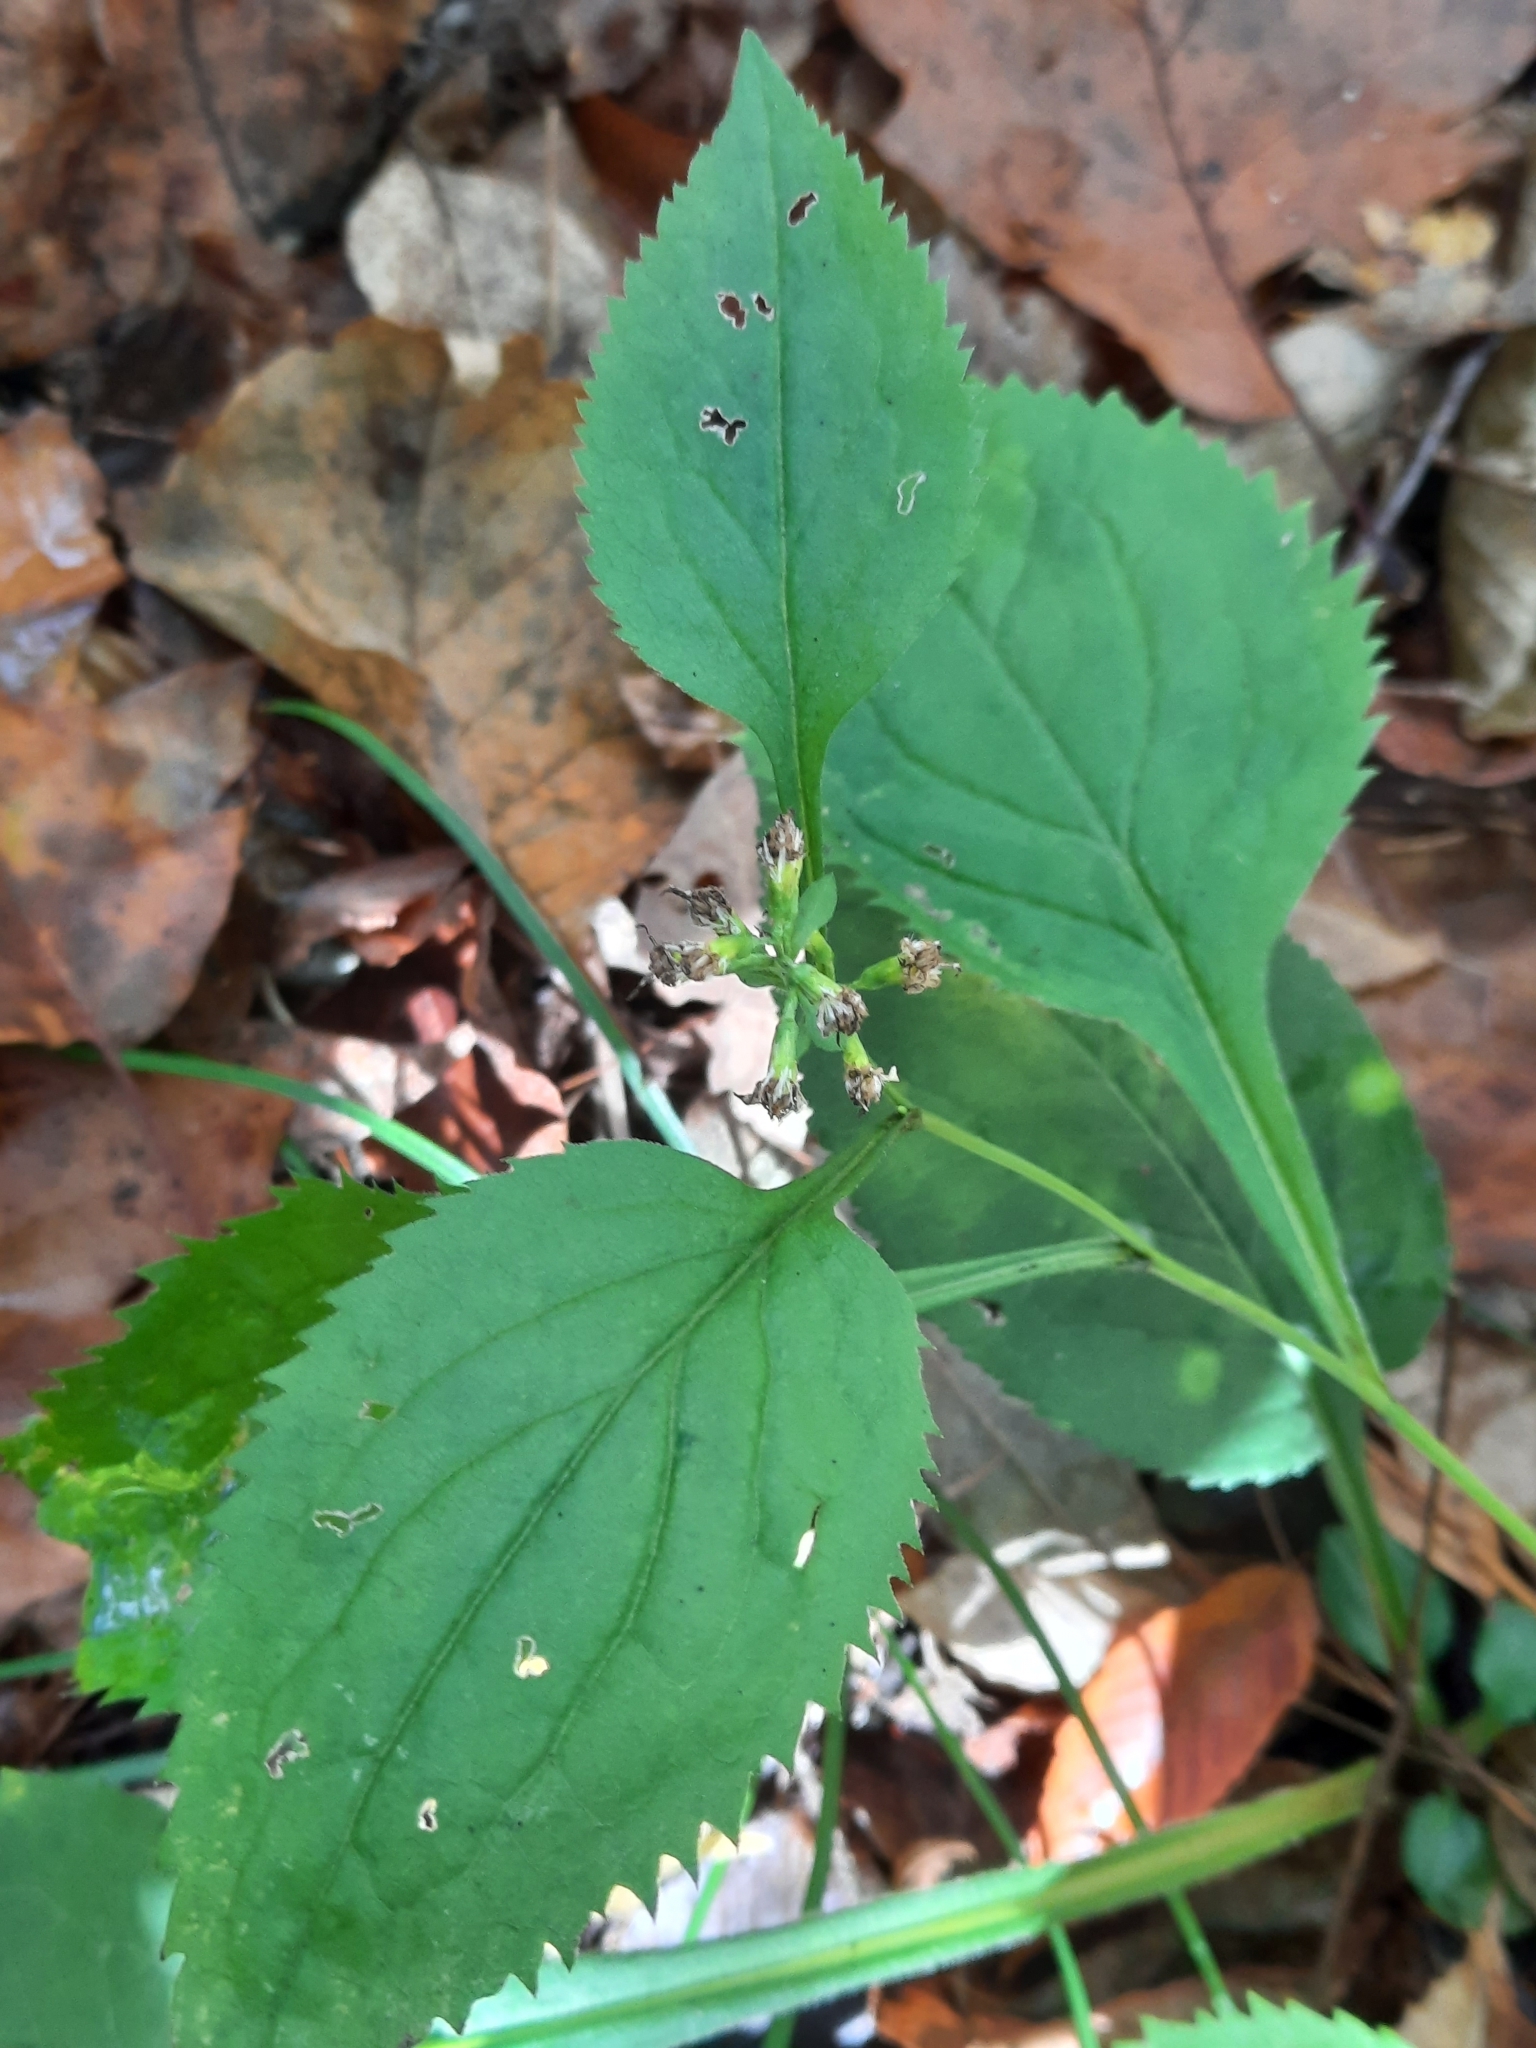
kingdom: Plantae
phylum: Tracheophyta
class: Magnoliopsida
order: Asterales
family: Asteraceae
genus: Solidago
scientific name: Solidago flexicaulis
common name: Zig-zag goldenrod
